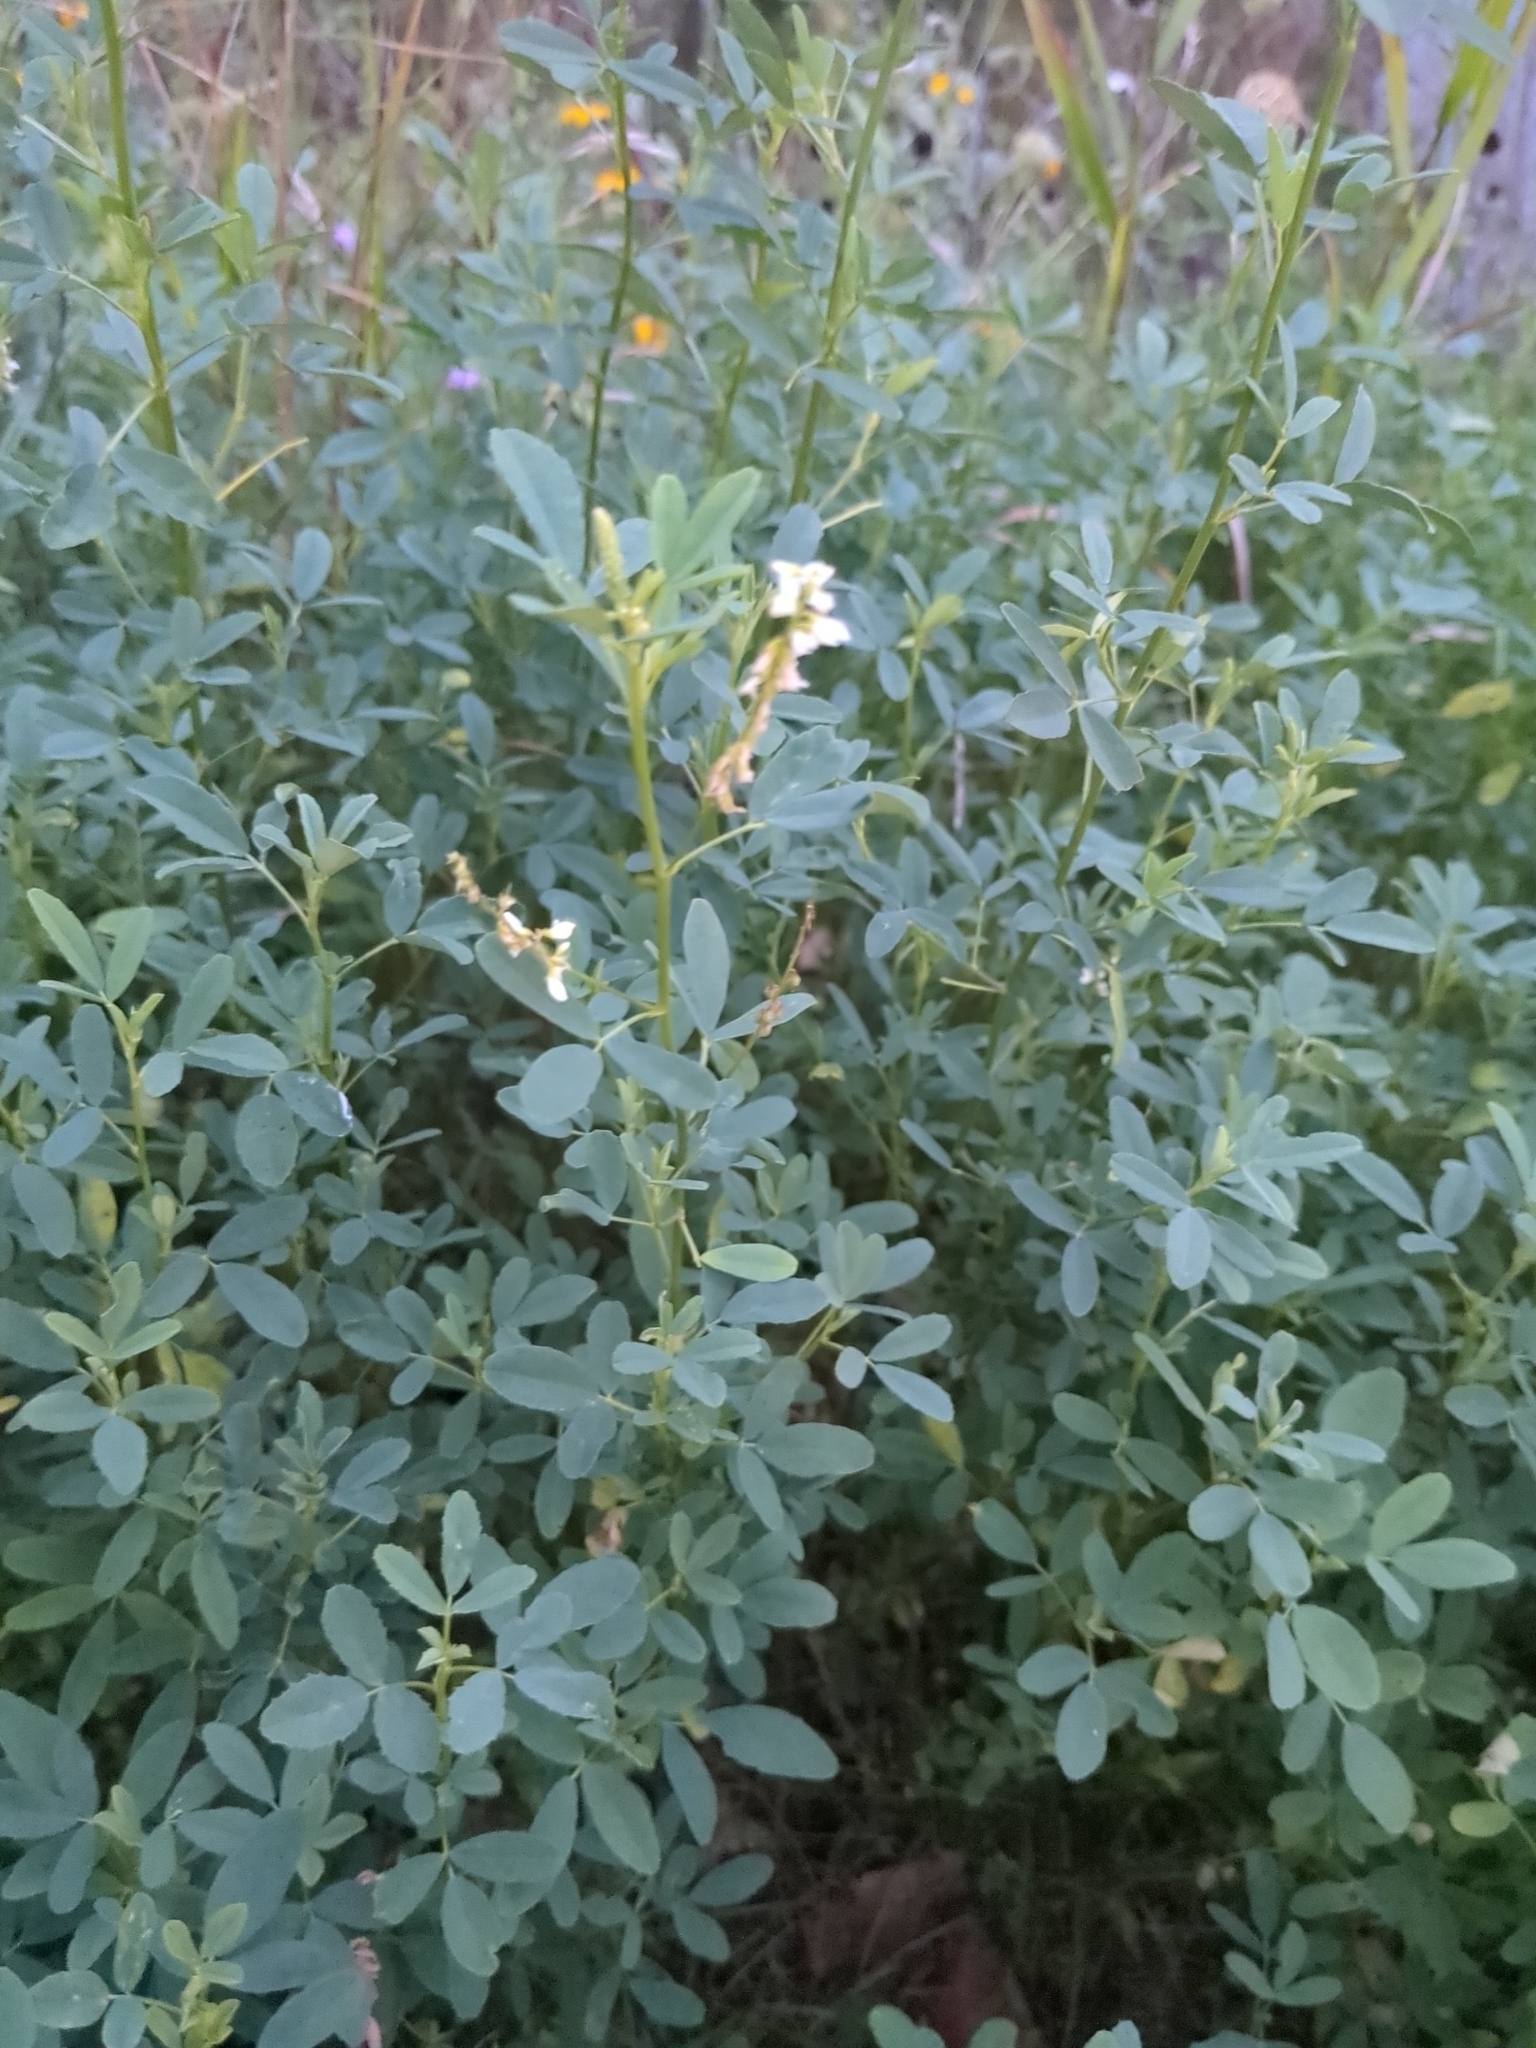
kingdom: Plantae
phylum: Tracheophyta
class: Magnoliopsida
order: Fabales
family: Fabaceae
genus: Melilotus
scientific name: Melilotus albus
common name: White melilot
